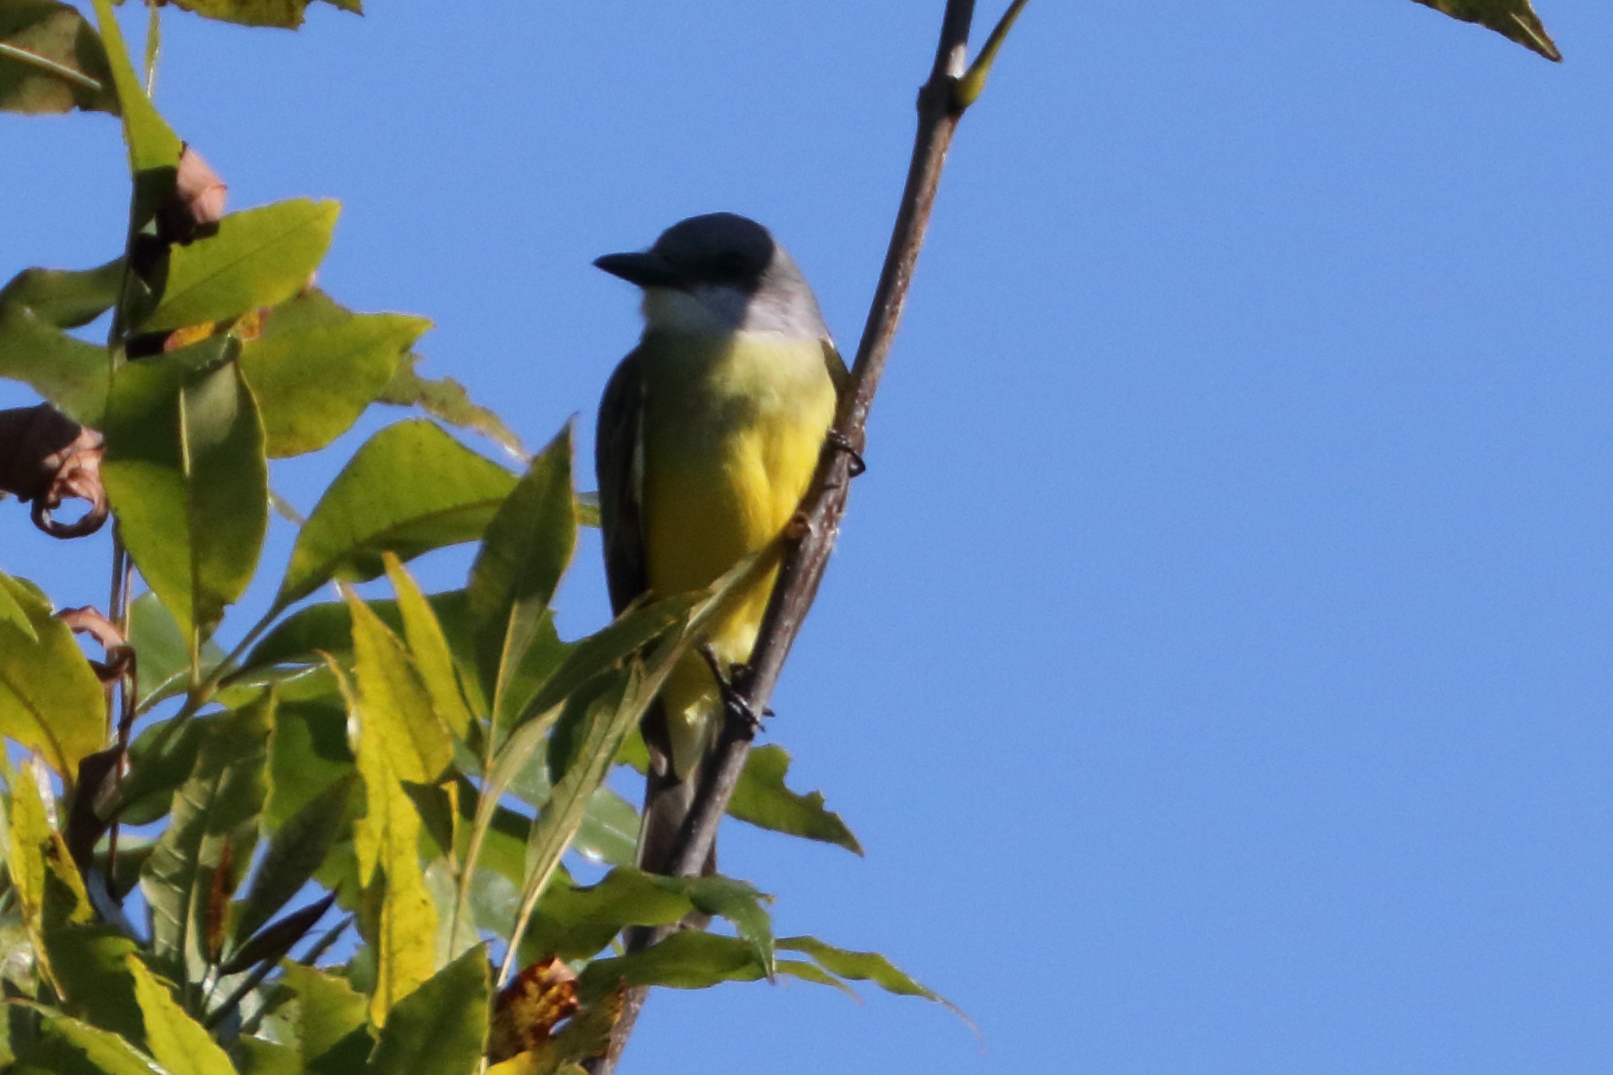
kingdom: Animalia
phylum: Chordata
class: Aves
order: Passeriformes
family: Tyrannidae
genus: Tyrannus
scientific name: Tyrannus melancholicus
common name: Tropical kingbird
